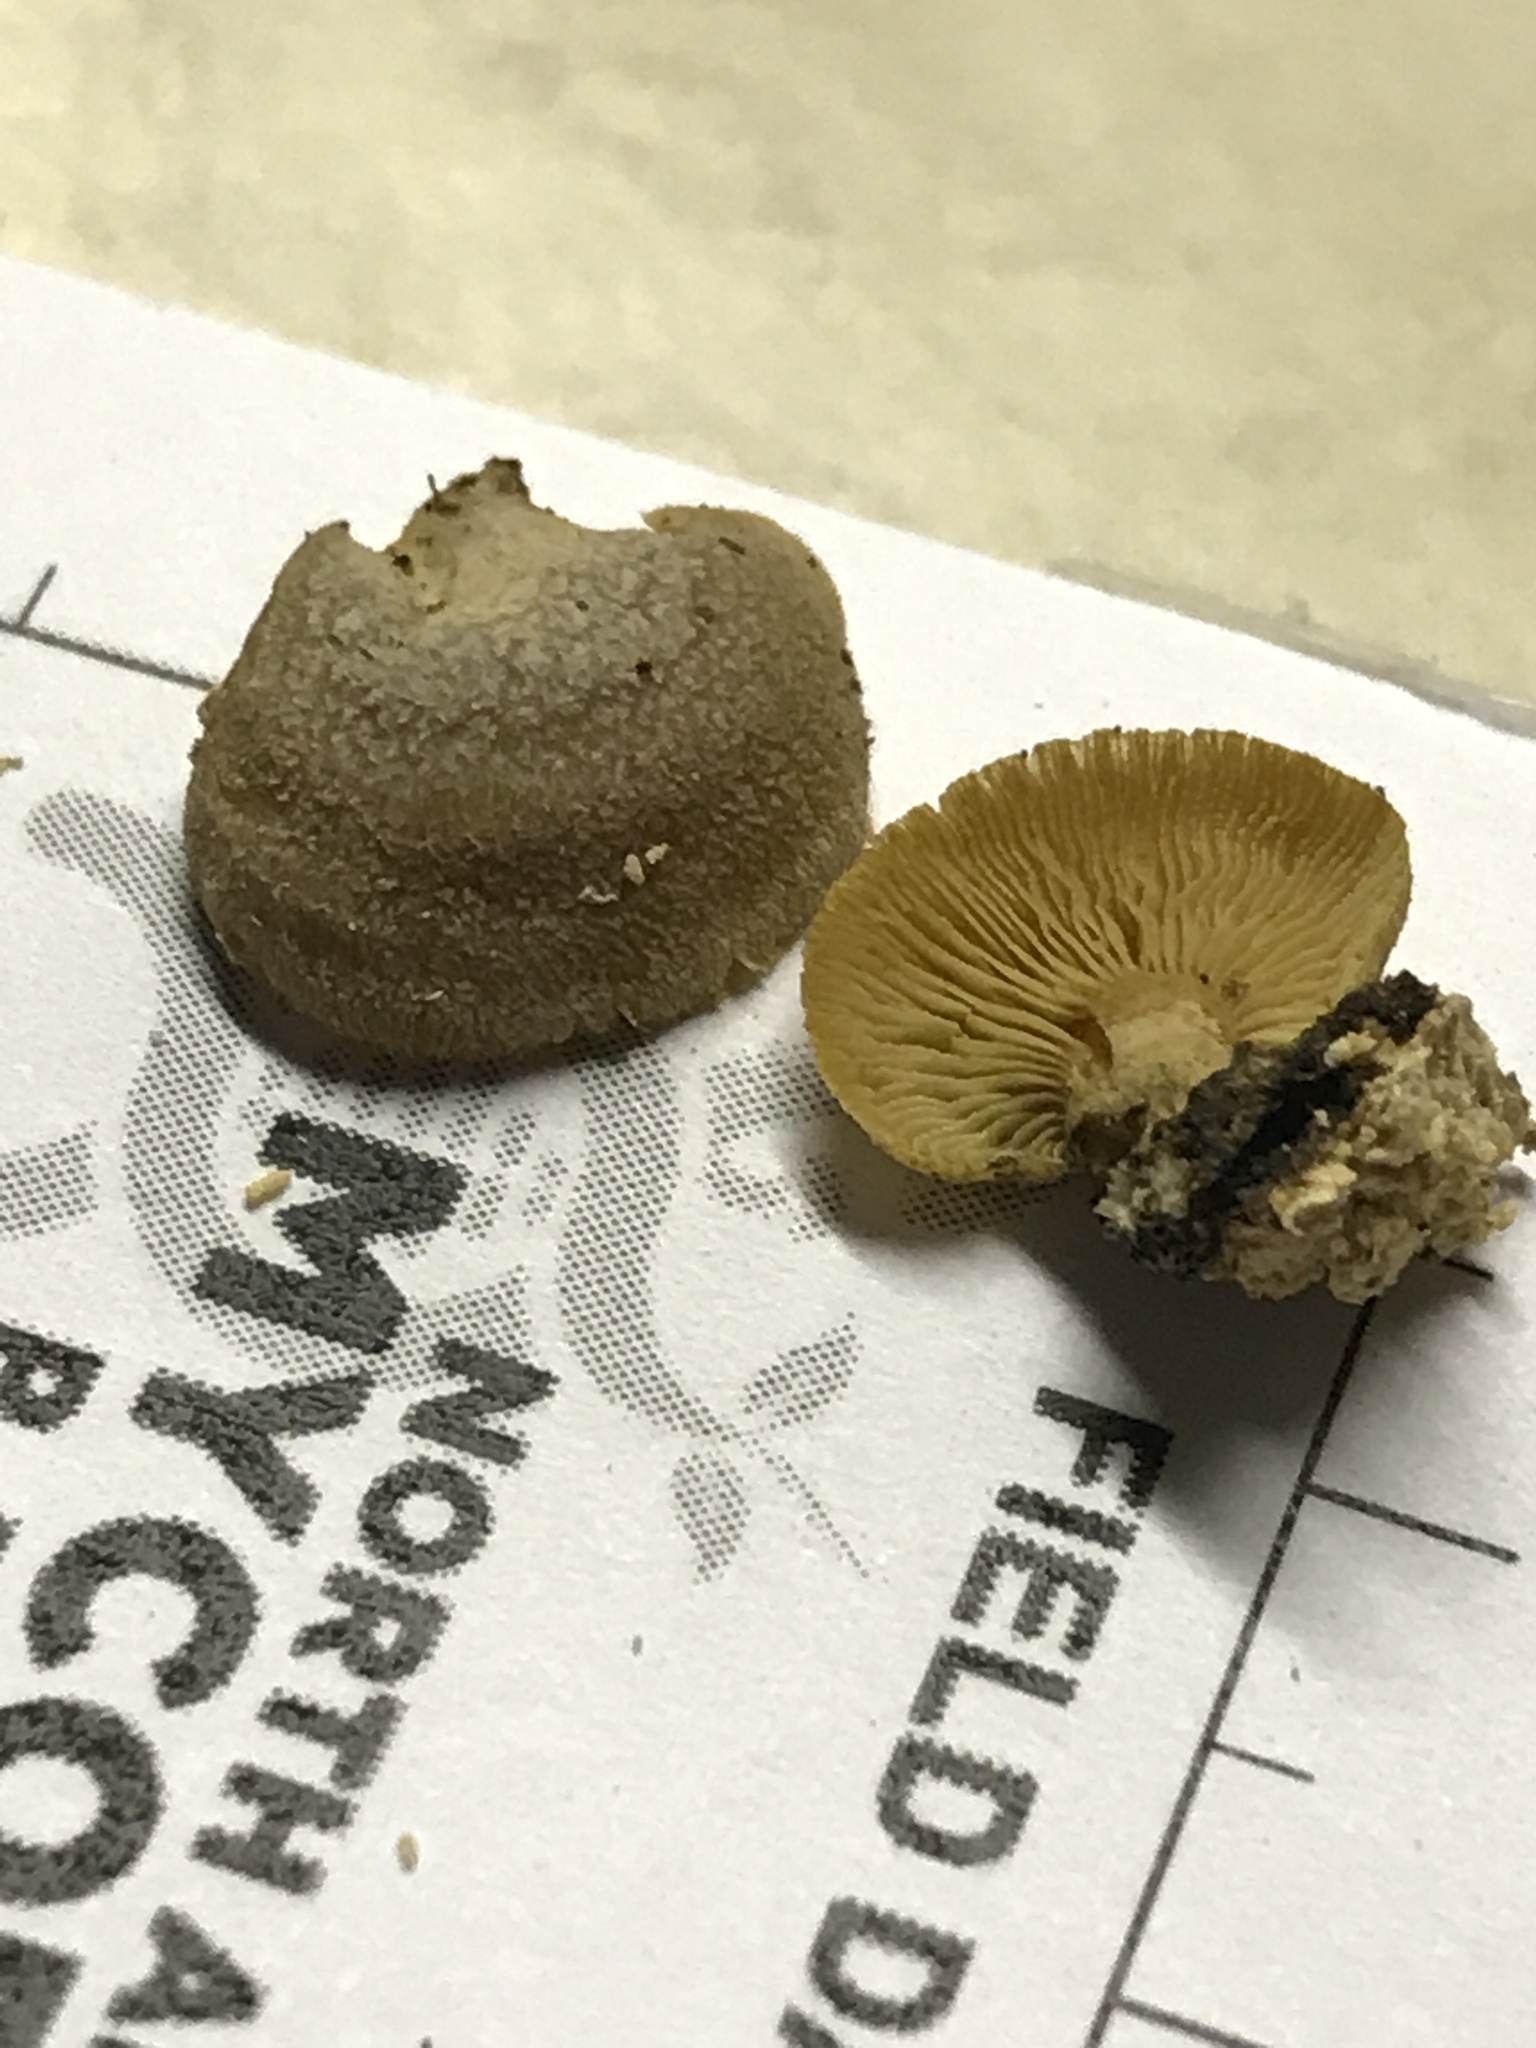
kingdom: Fungi
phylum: Basidiomycota
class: Agaricomycetes
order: Agaricales
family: Mycenaceae
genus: Panellus
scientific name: Panellus stipticus
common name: Bitter oysterling
